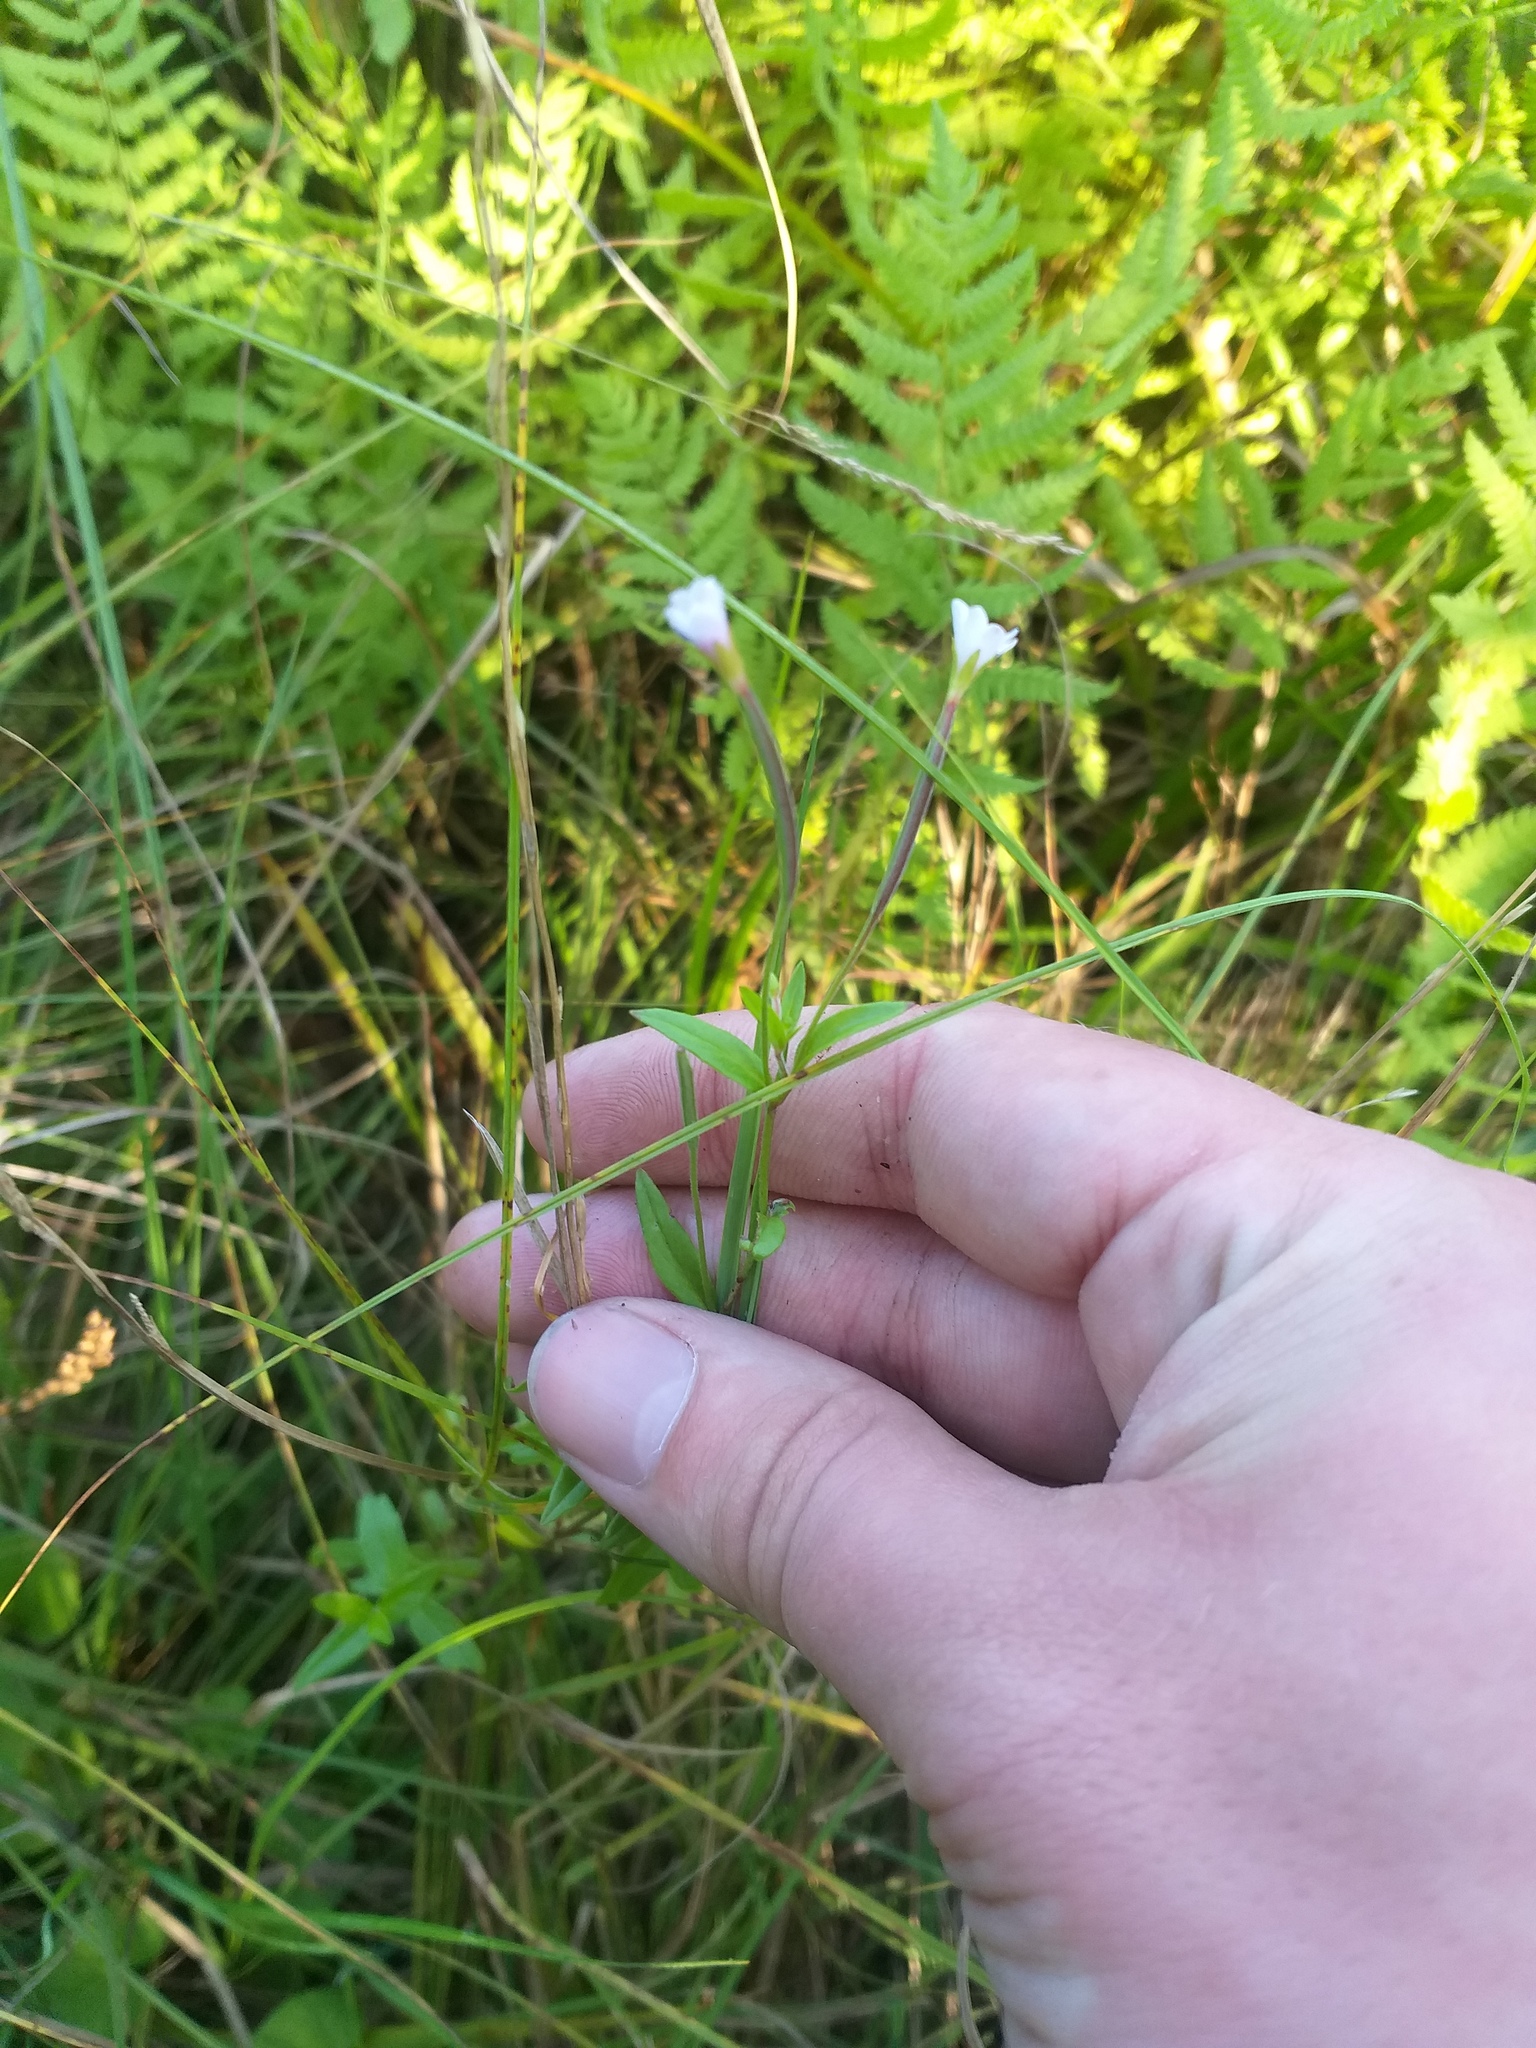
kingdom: Plantae
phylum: Tracheophyta
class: Magnoliopsida
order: Myrtales
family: Onagraceae
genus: Epilobium
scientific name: Epilobium palustre
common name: Marsh willowherb
